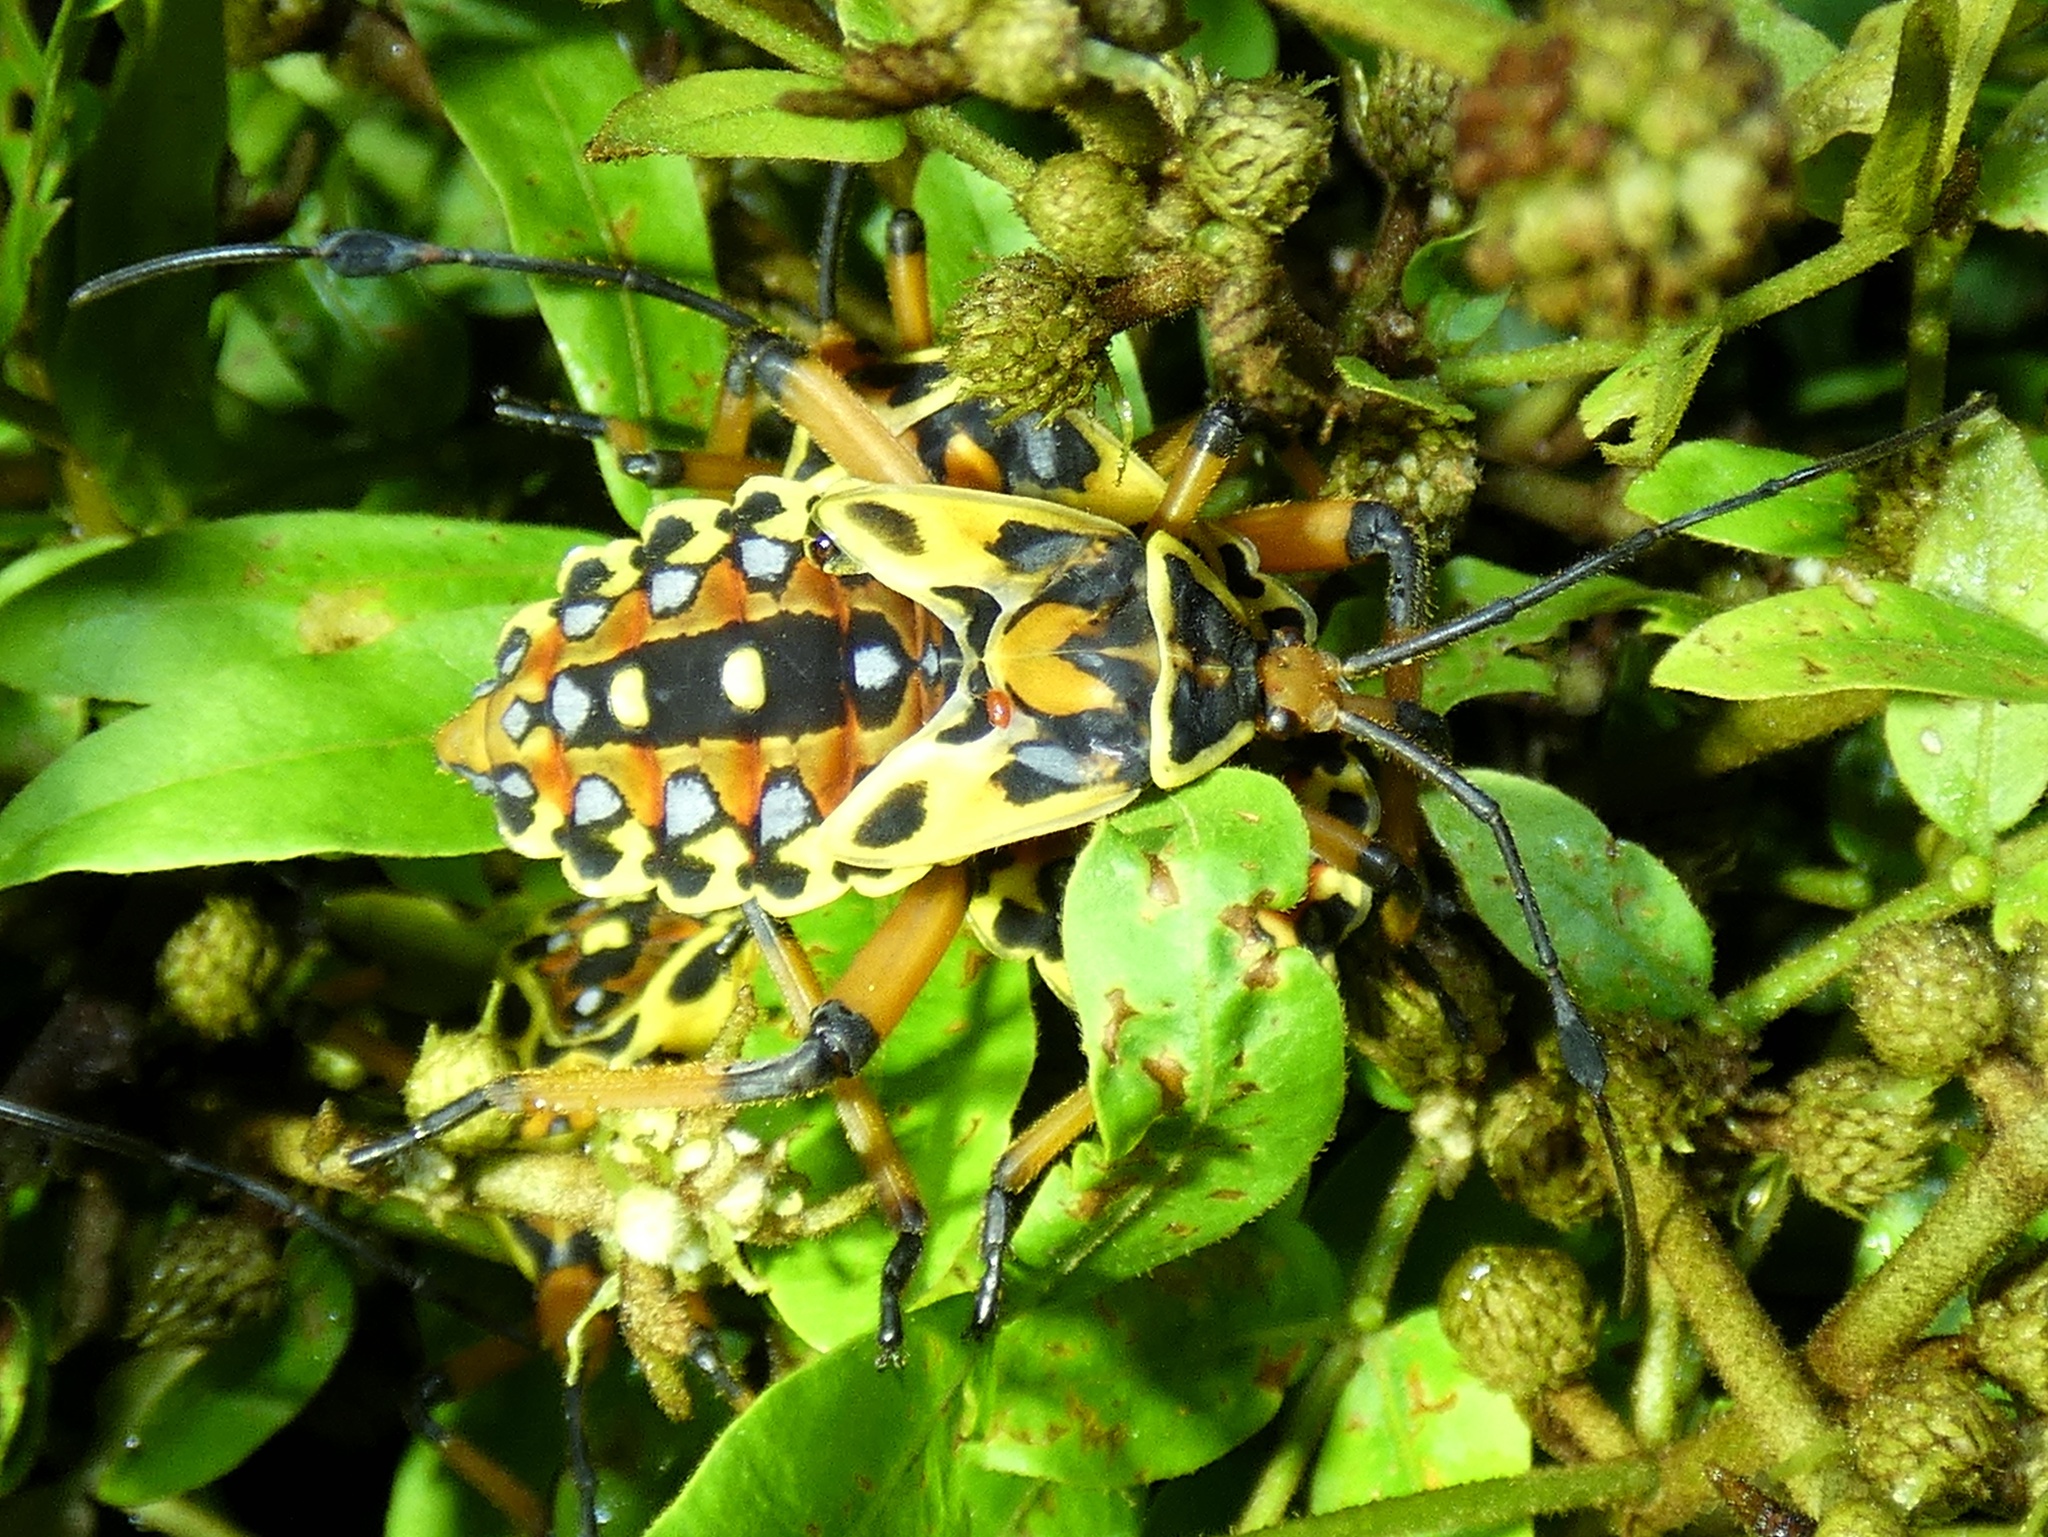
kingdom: Animalia
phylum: Arthropoda
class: Insecta
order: Hemiptera
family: Coreidae
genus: Pachylis
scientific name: Pachylis nervosus
